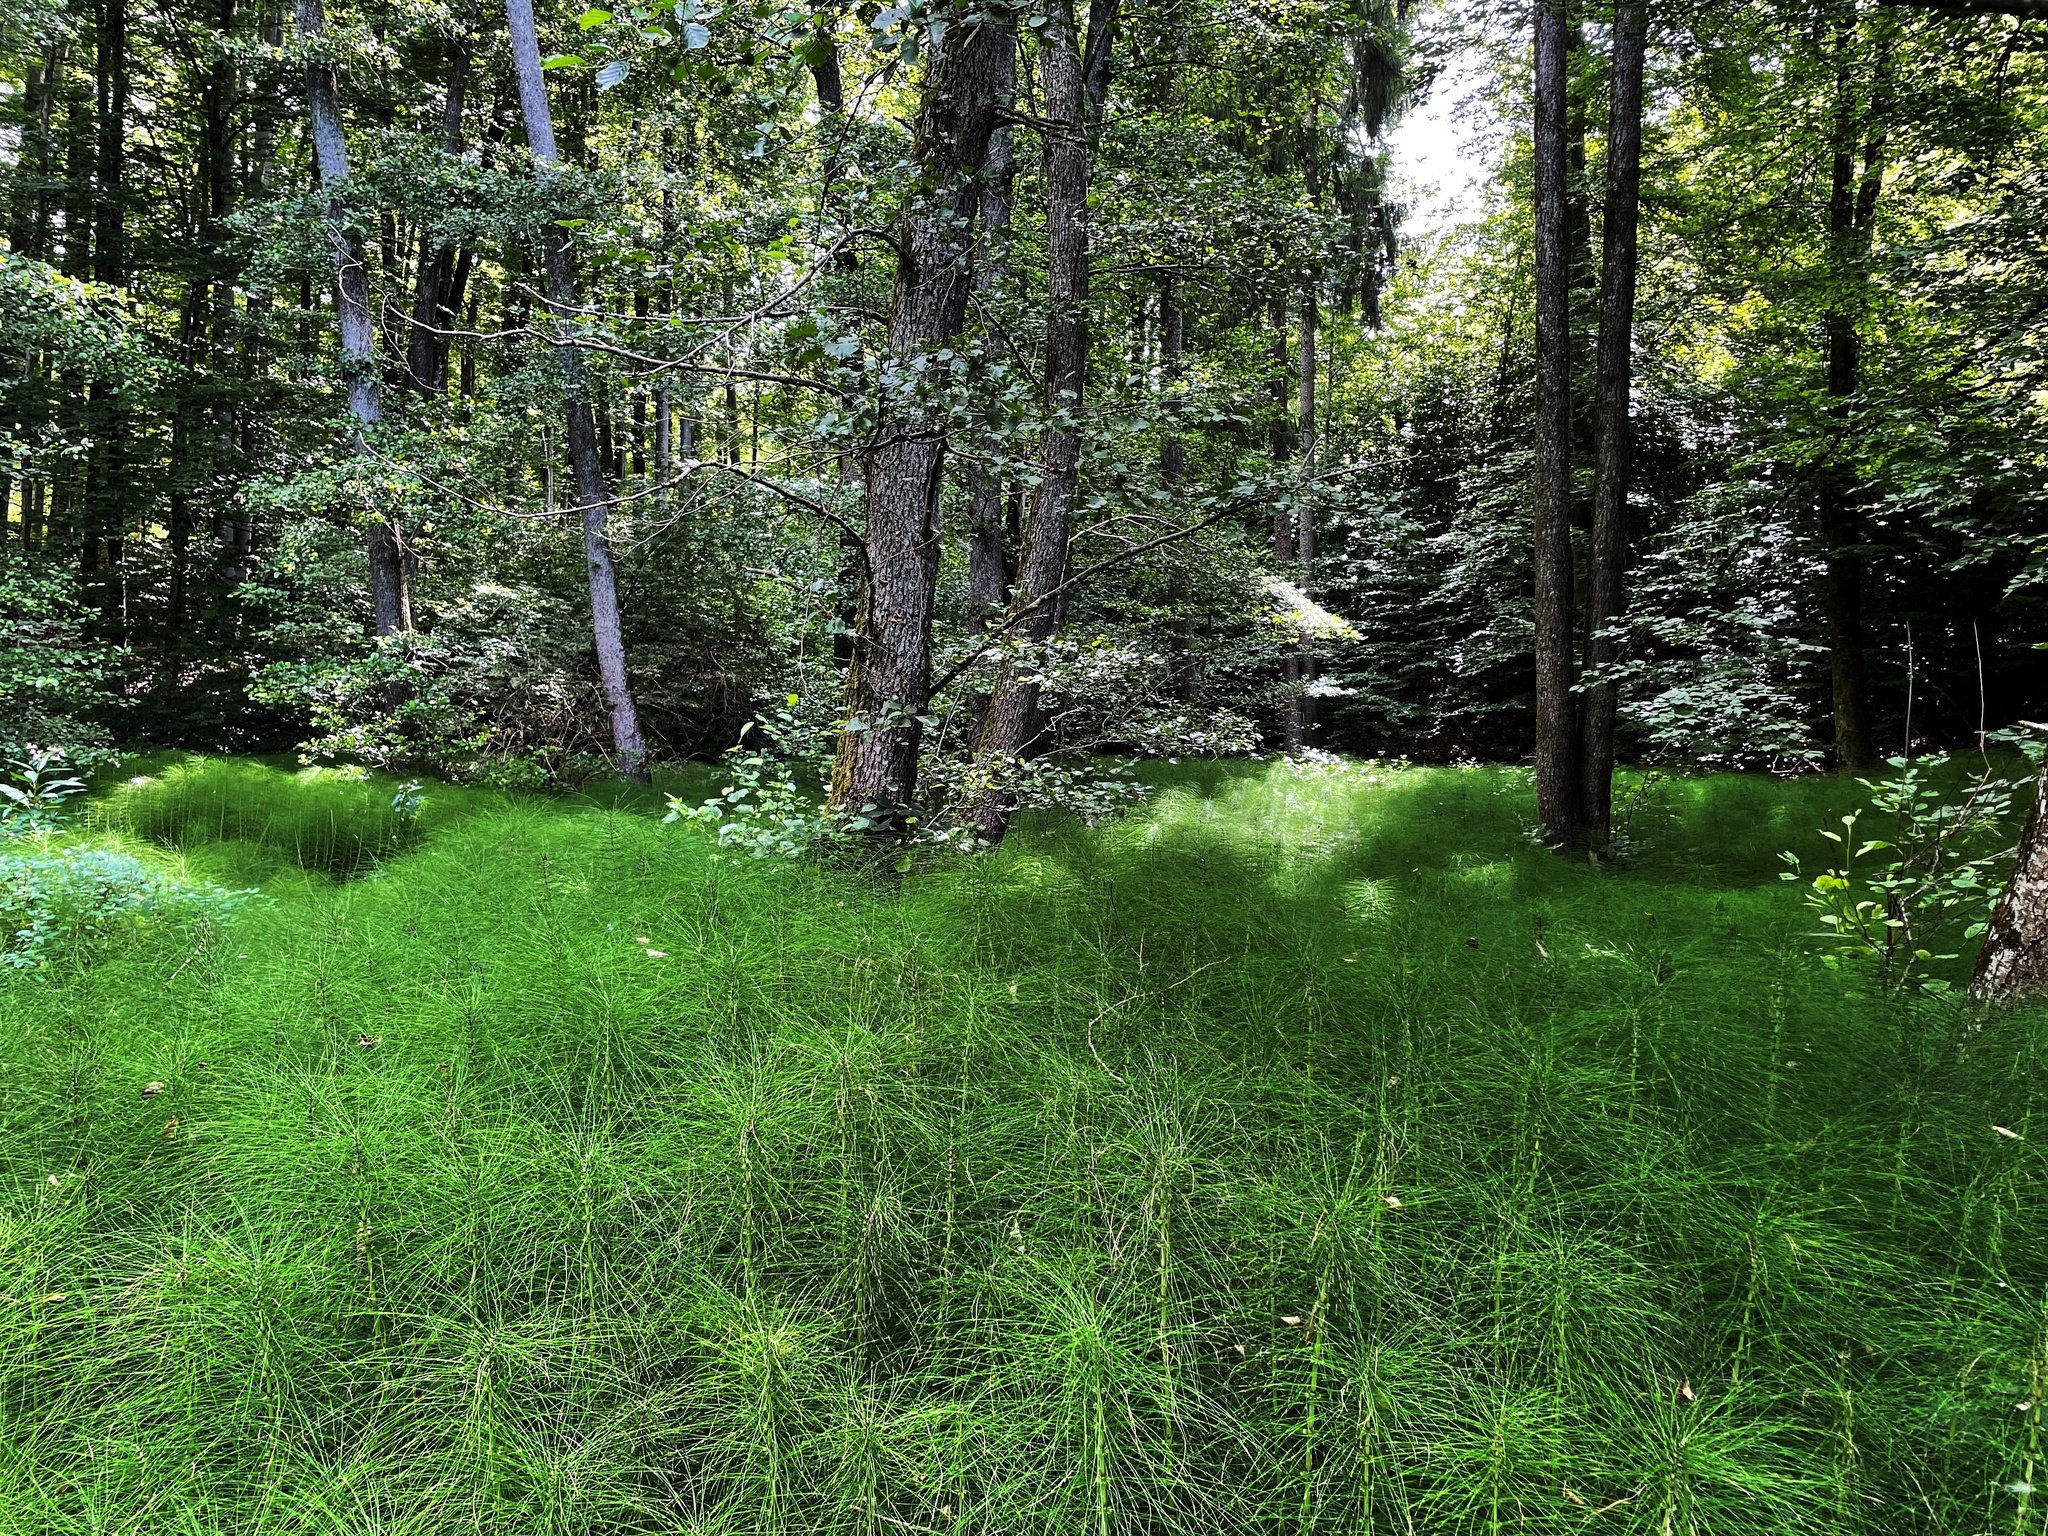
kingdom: Plantae
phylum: Tracheophyta
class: Polypodiopsida
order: Equisetales
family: Equisetaceae
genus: Equisetum
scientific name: Equisetum telmateia
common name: Great horsetail
